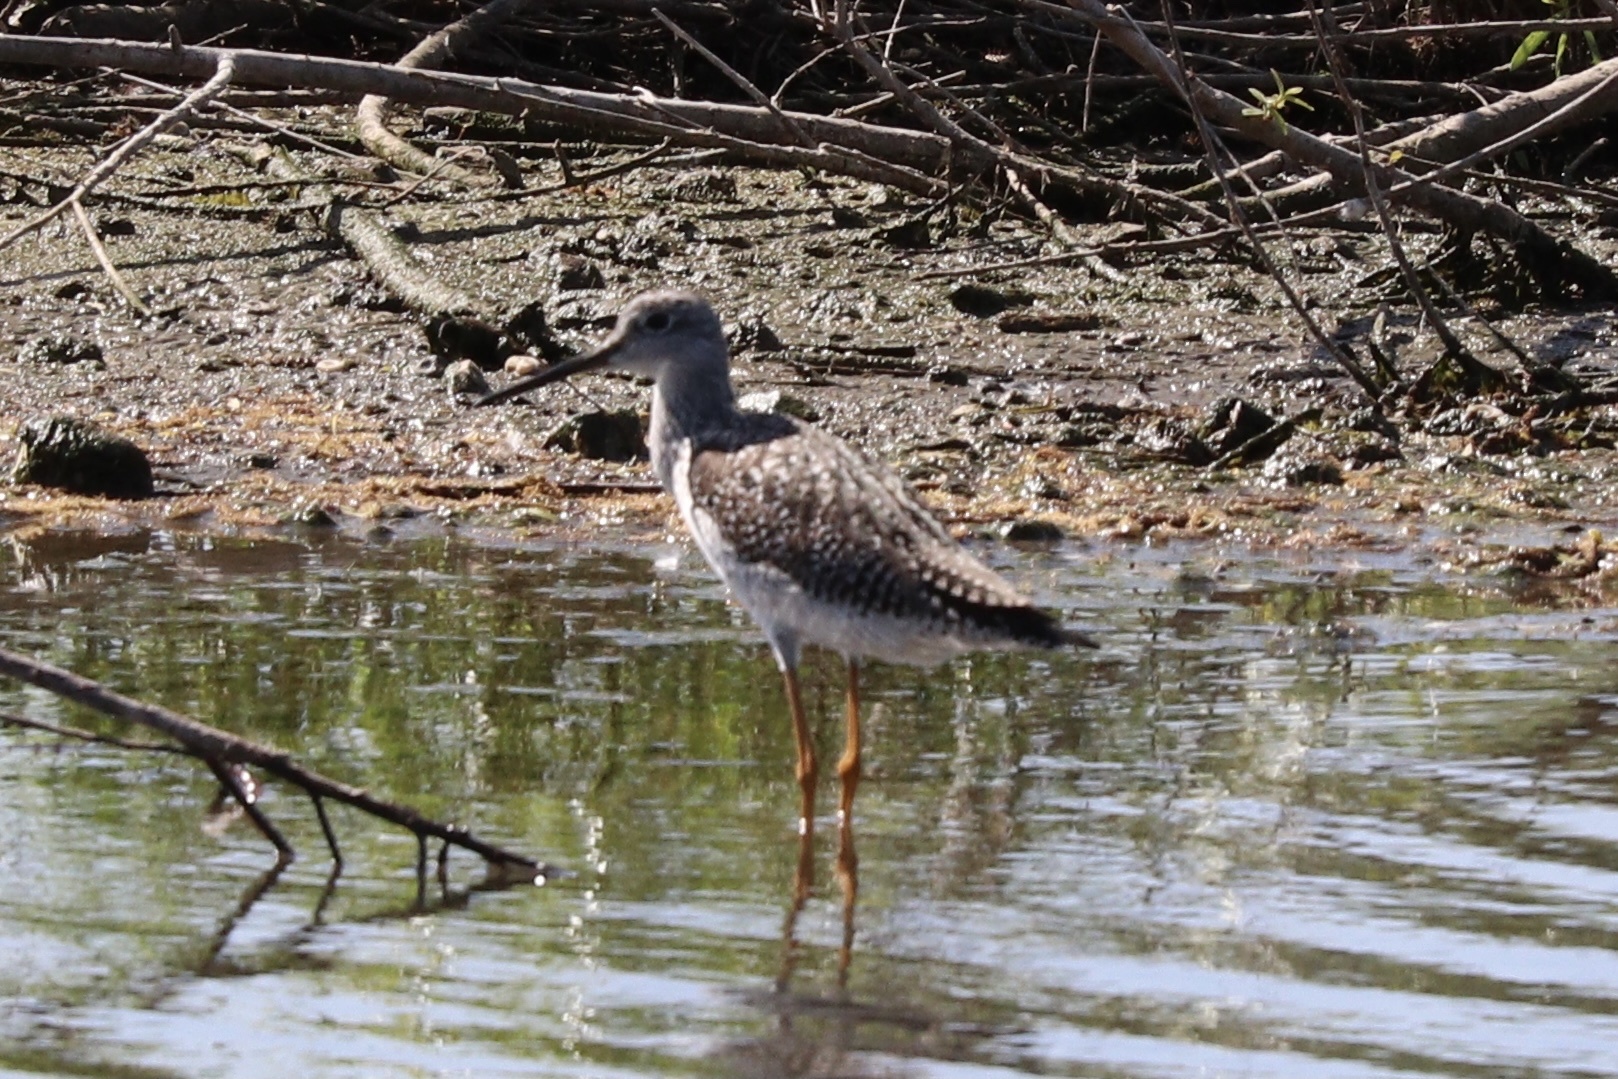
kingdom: Animalia
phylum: Chordata
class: Aves
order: Charadriiformes
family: Scolopacidae
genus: Tringa
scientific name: Tringa melanoleuca
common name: Greater yellowlegs
